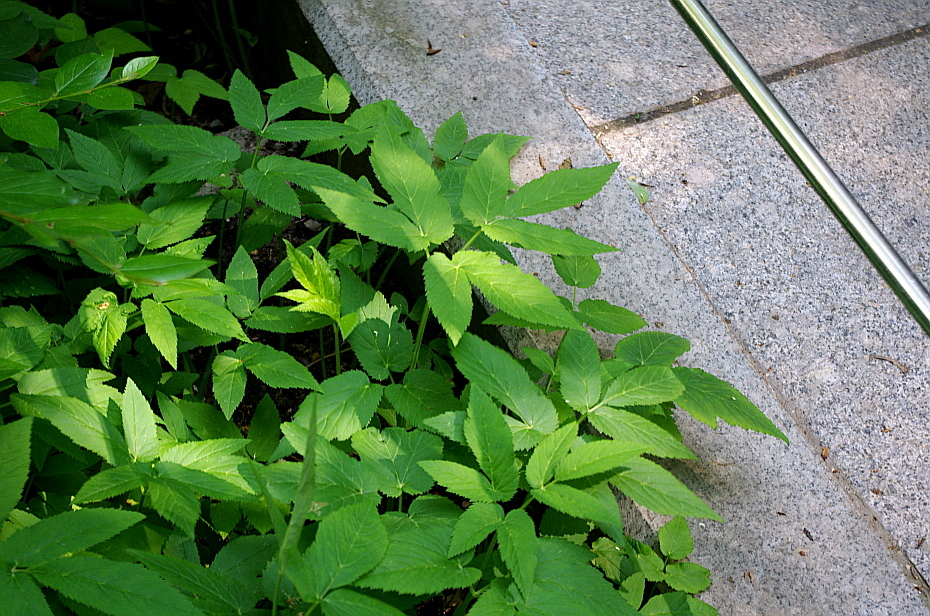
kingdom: Plantae
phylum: Tracheophyta
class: Magnoliopsida
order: Apiales
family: Apiaceae
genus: Aegopodium
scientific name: Aegopodium podagraria
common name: Ground-elder
